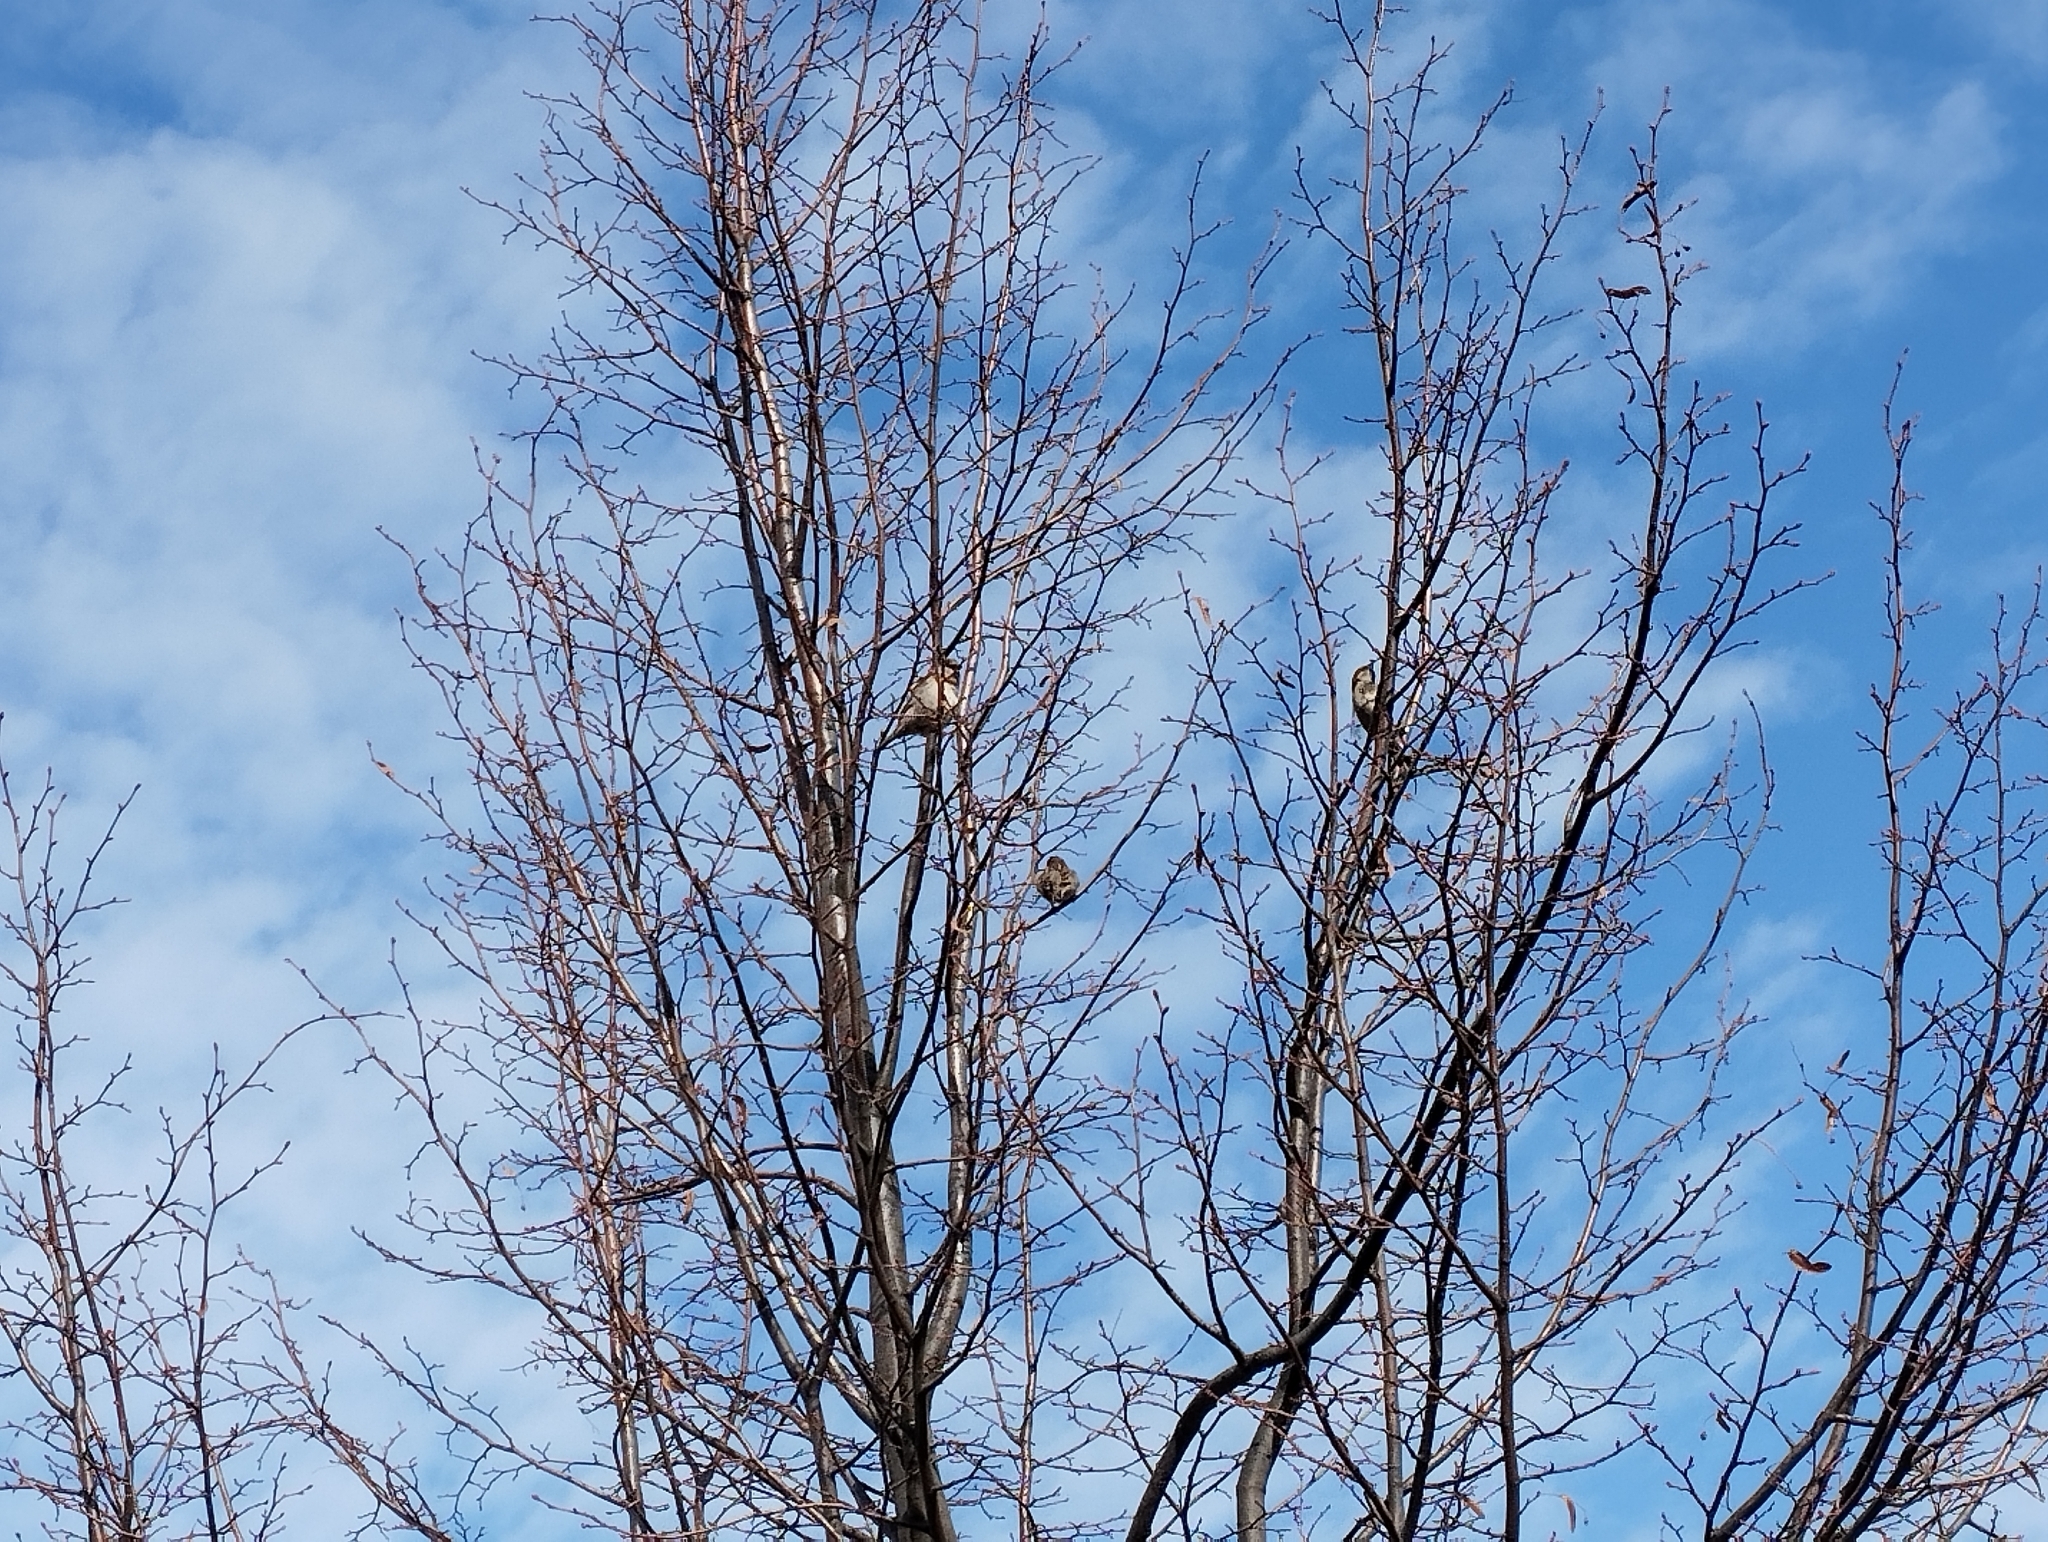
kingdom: Animalia
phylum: Chordata
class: Aves
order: Passeriformes
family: Passeridae
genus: Passer
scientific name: Passer domesticus
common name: House sparrow
